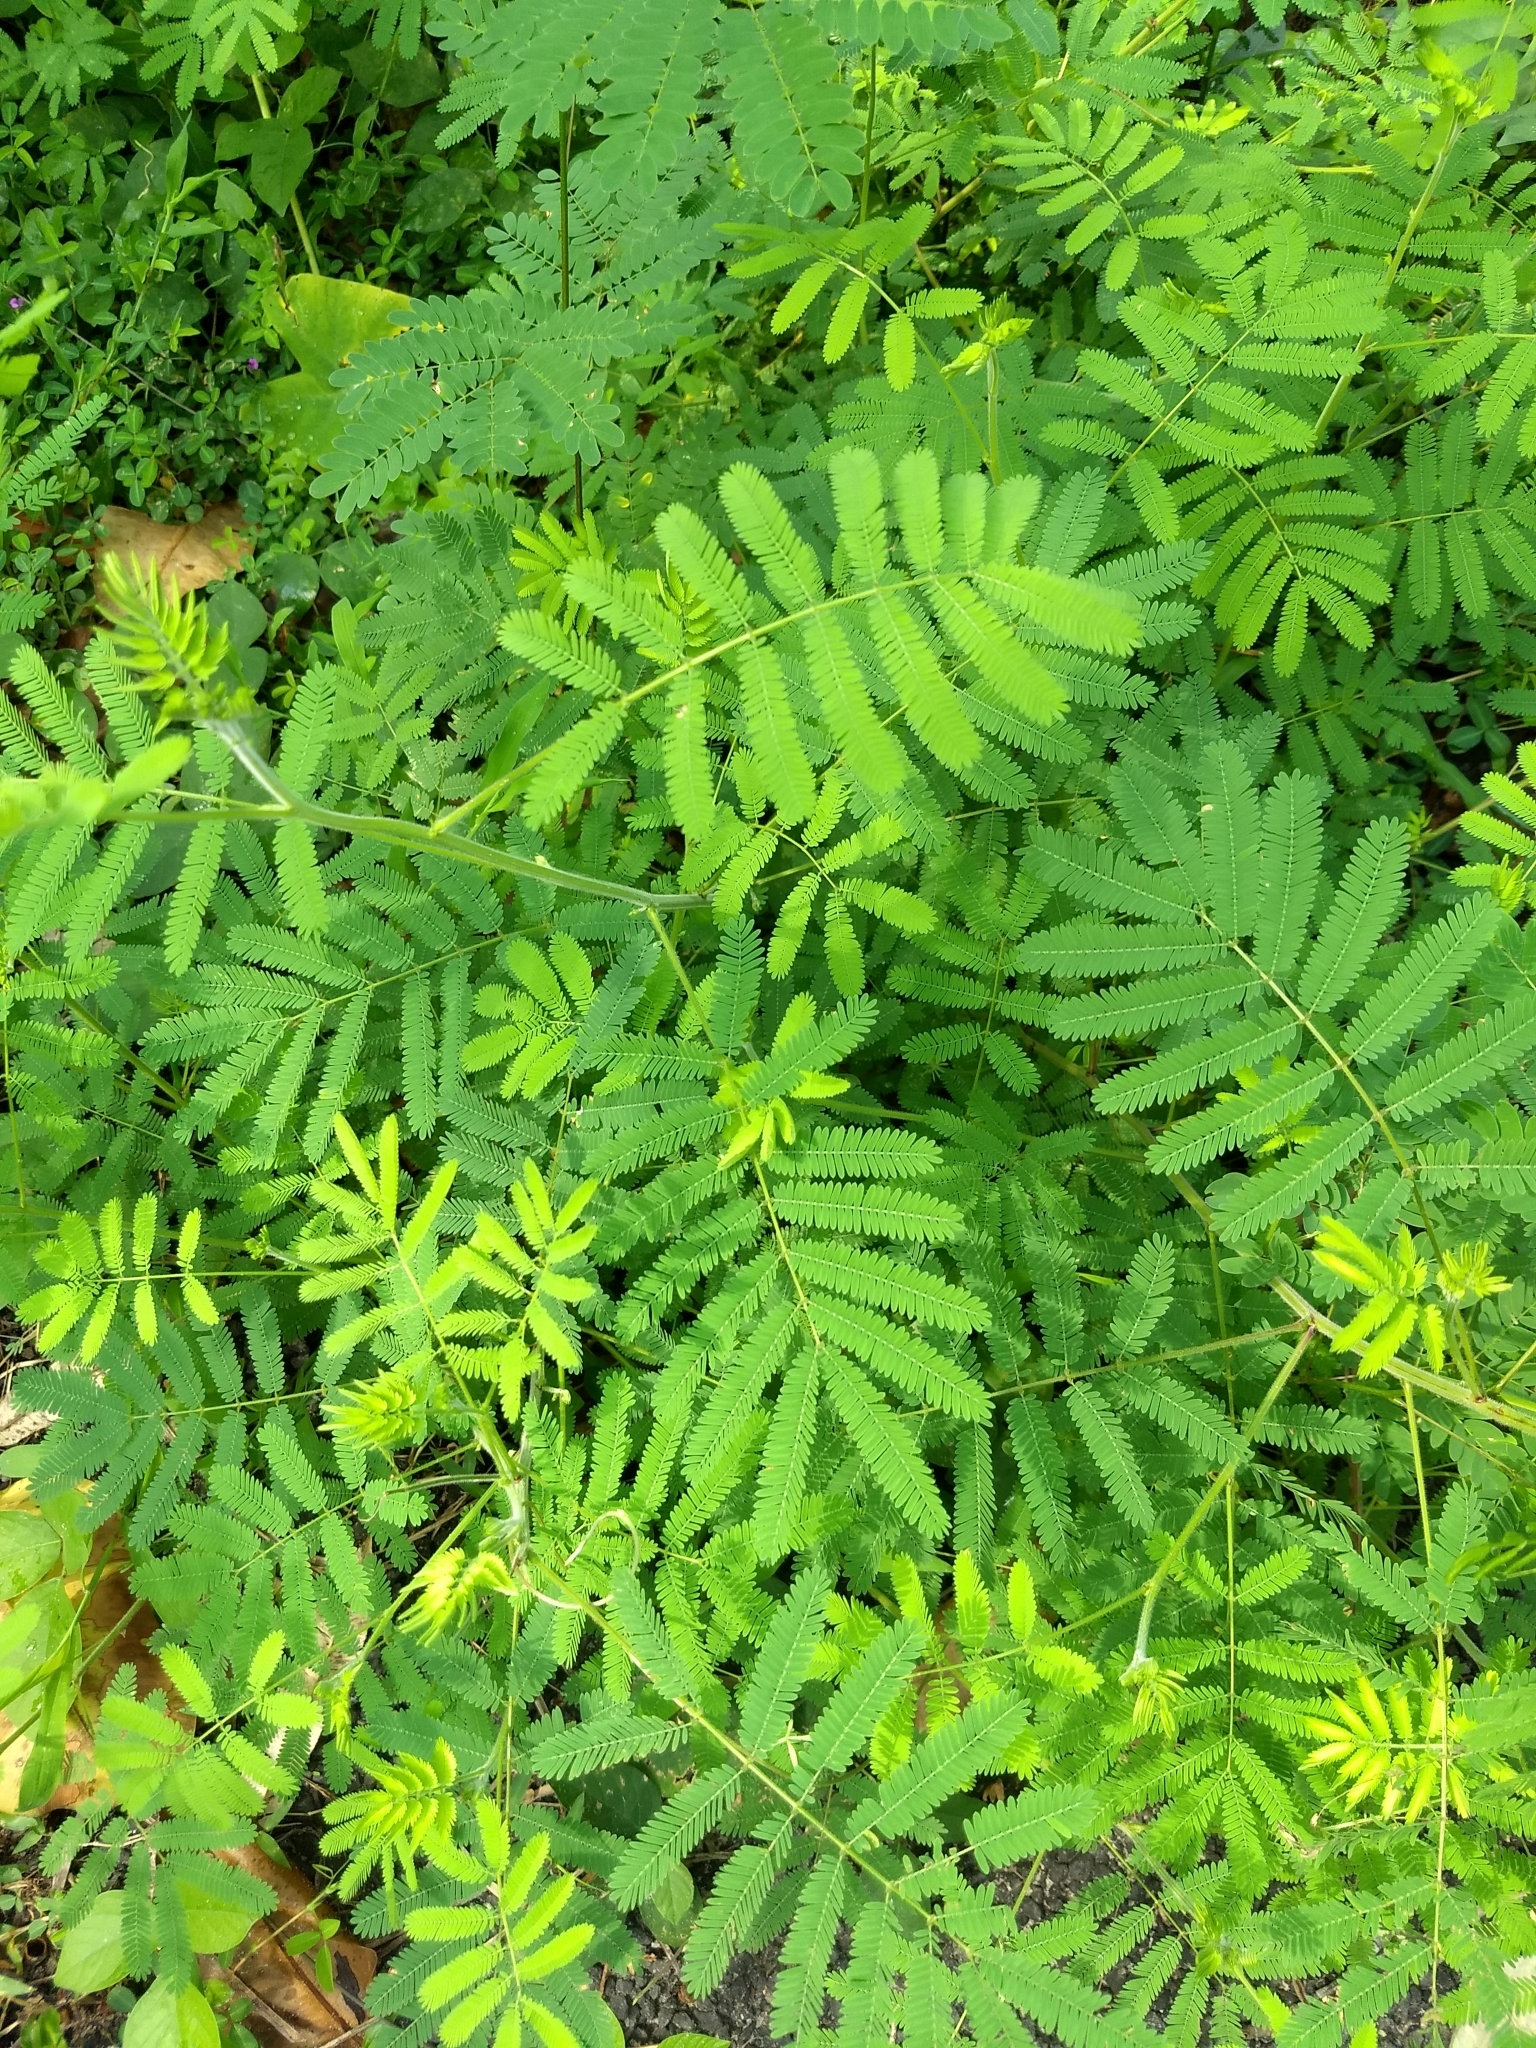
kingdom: Plantae
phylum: Tracheophyta
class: Magnoliopsida
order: Fabales
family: Fabaceae
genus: Mimosa
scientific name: Mimosa diplotricha
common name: Giant sensitive-plant
